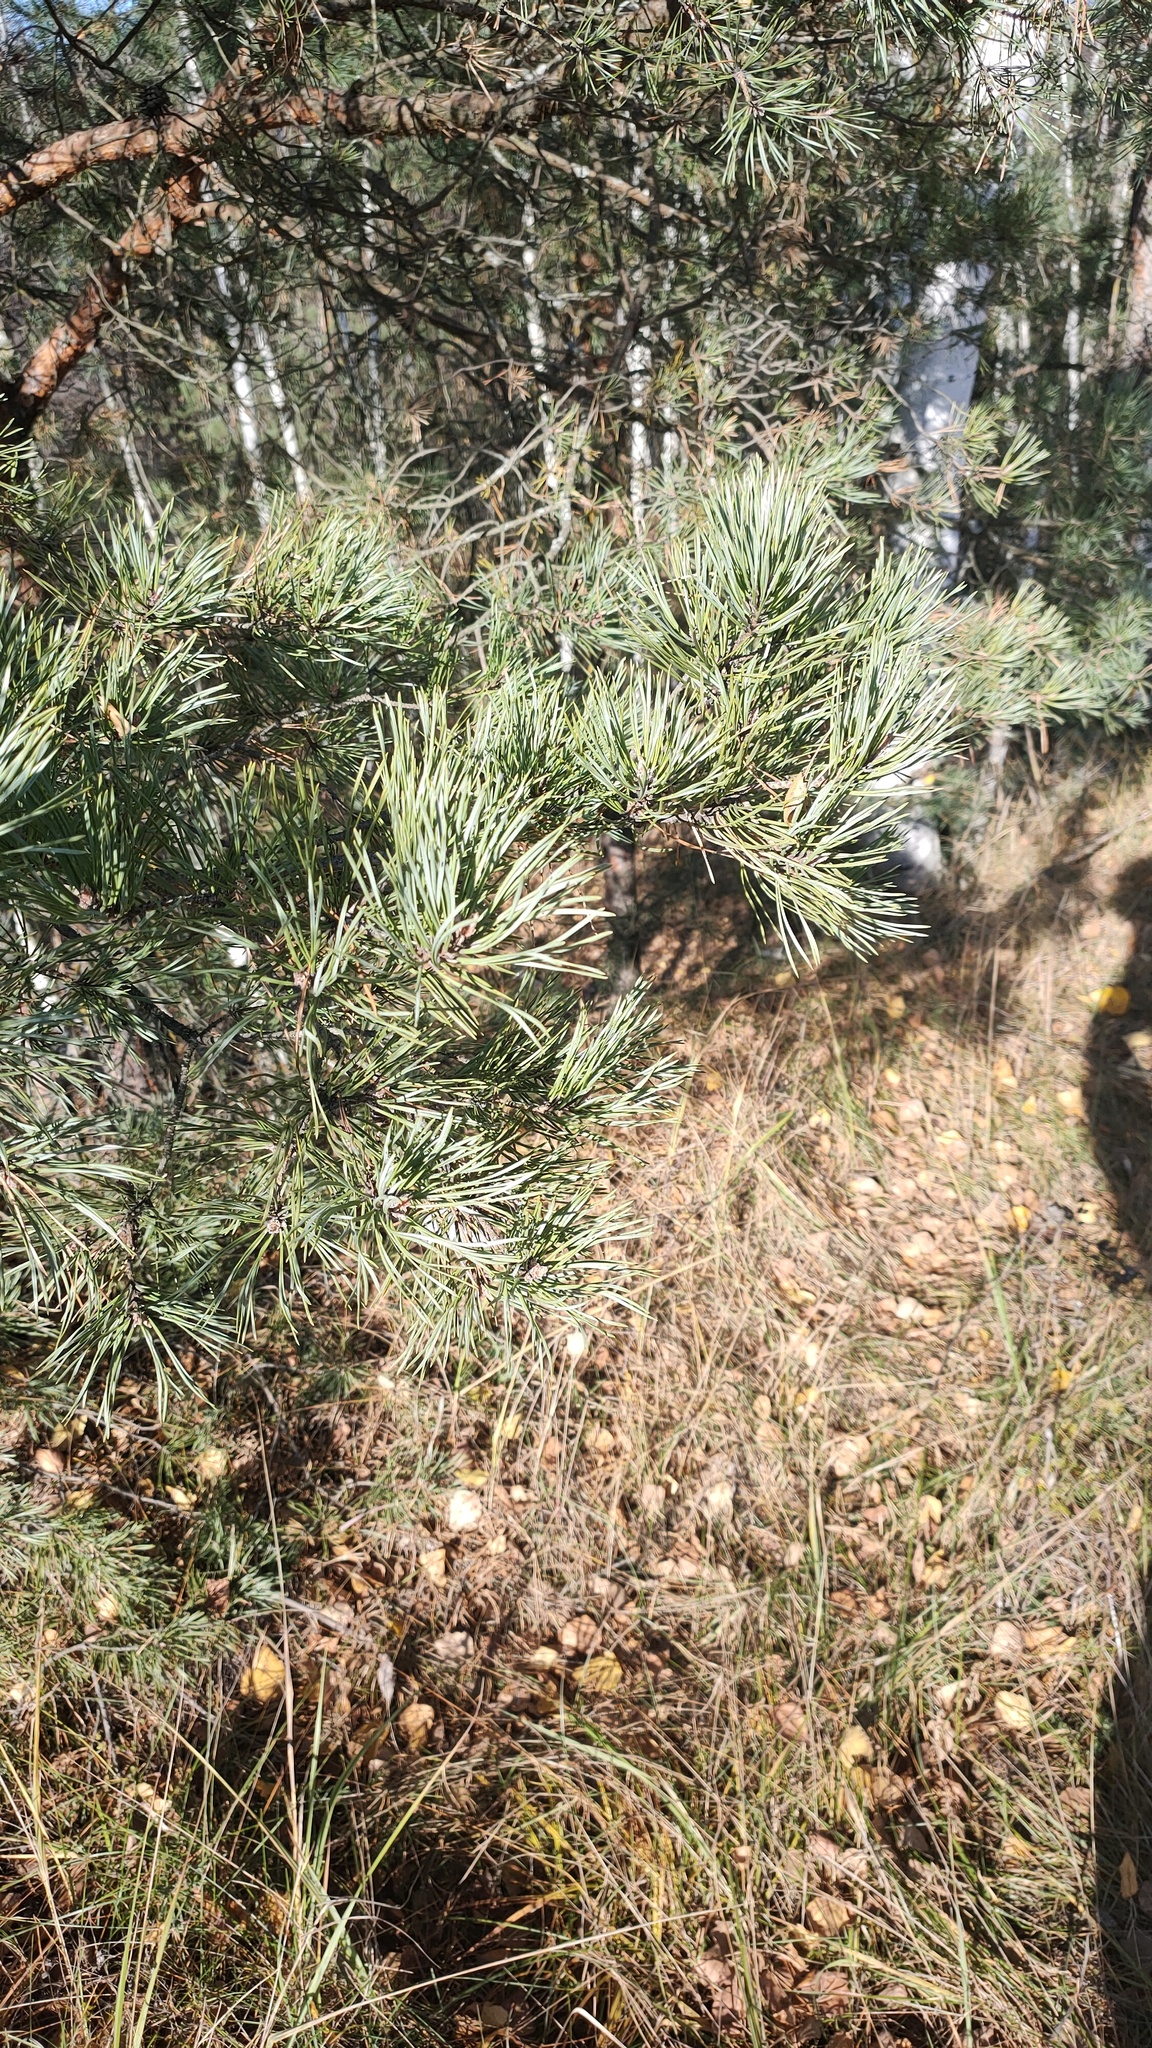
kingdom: Plantae
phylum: Tracheophyta
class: Pinopsida
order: Pinales
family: Pinaceae
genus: Pinus
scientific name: Pinus sylvestris
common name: Scots pine
